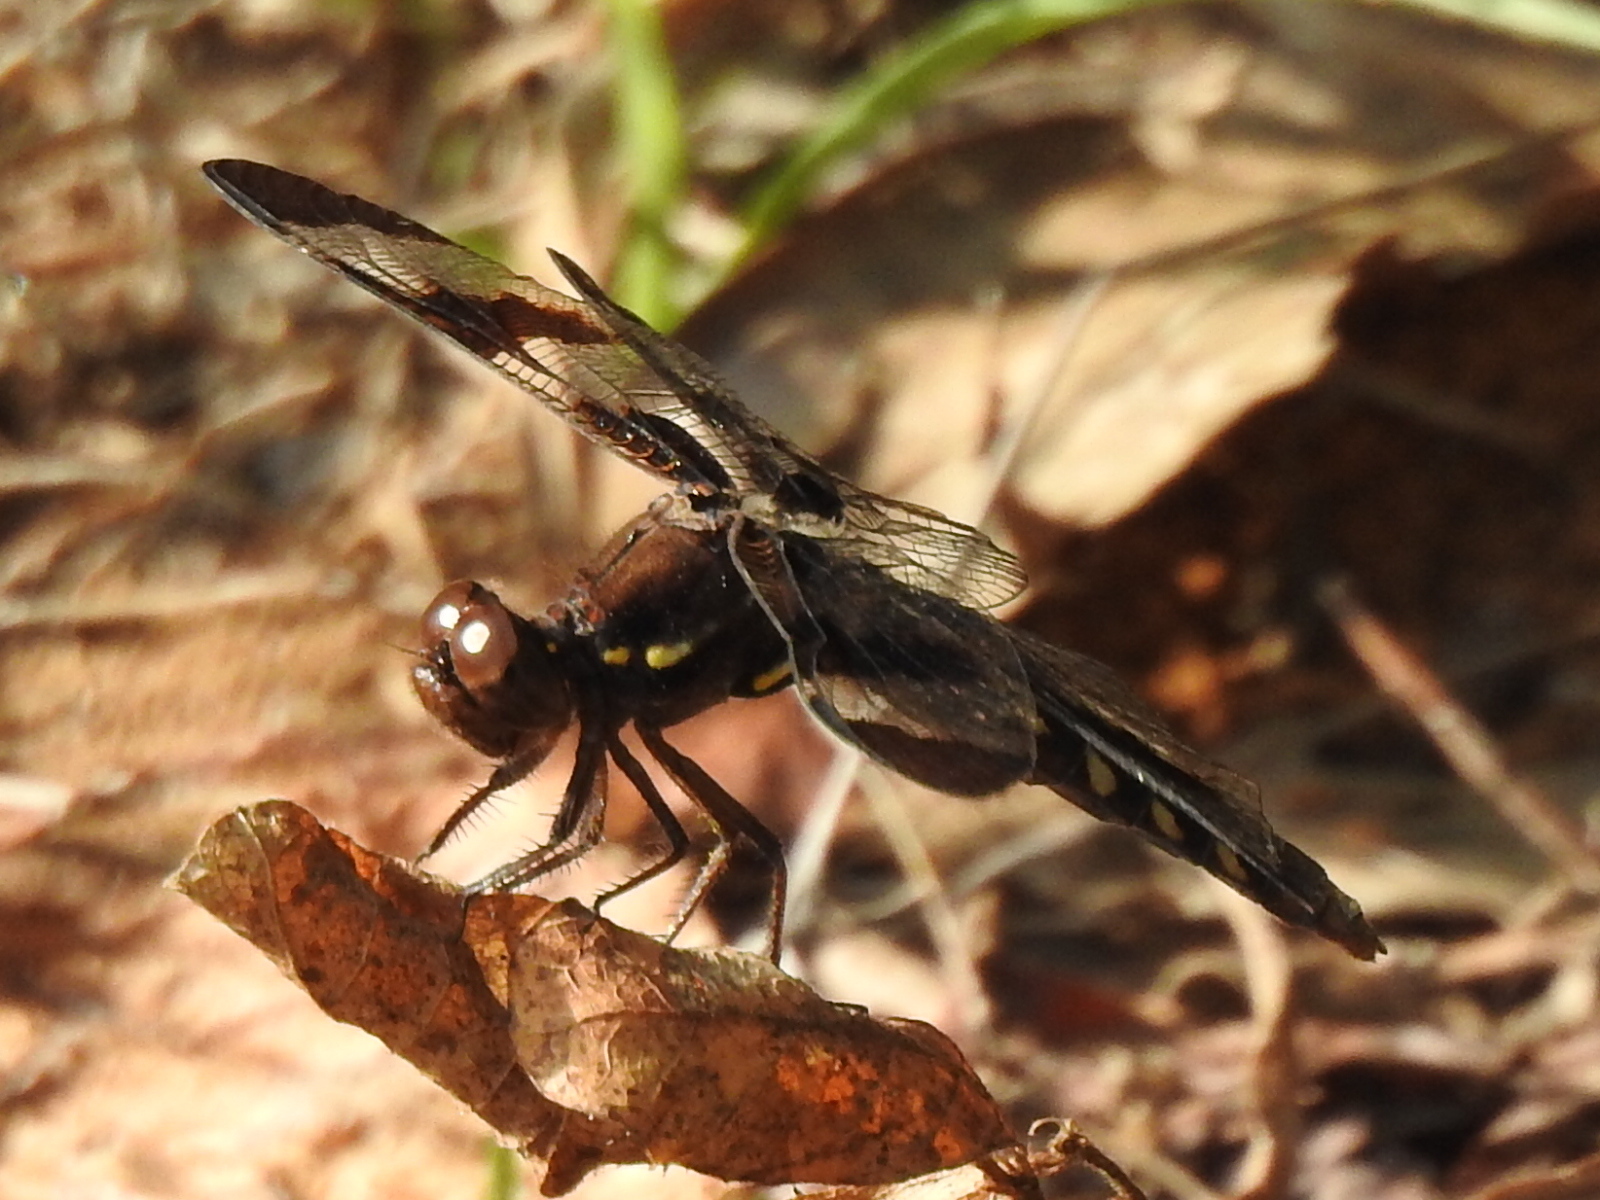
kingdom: Animalia
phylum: Arthropoda
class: Insecta
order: Odonata
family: Libellulidae
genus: Plathemis
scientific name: Plathemis lydia
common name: Common whitetail
